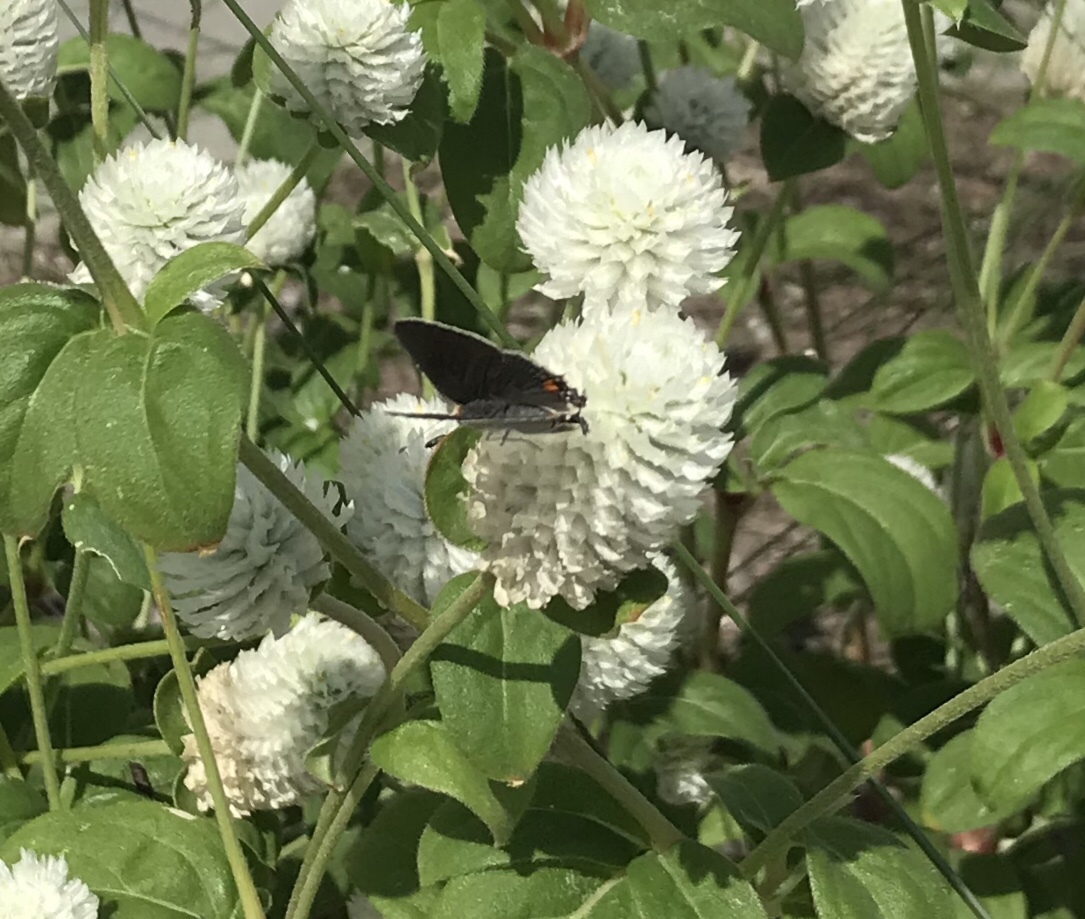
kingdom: Animalia
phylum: Arthropoda
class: Insecta
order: Lepidoptera
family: Lycaenidae
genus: Strymon
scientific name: Strymon melinus
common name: Gray hairstreak
